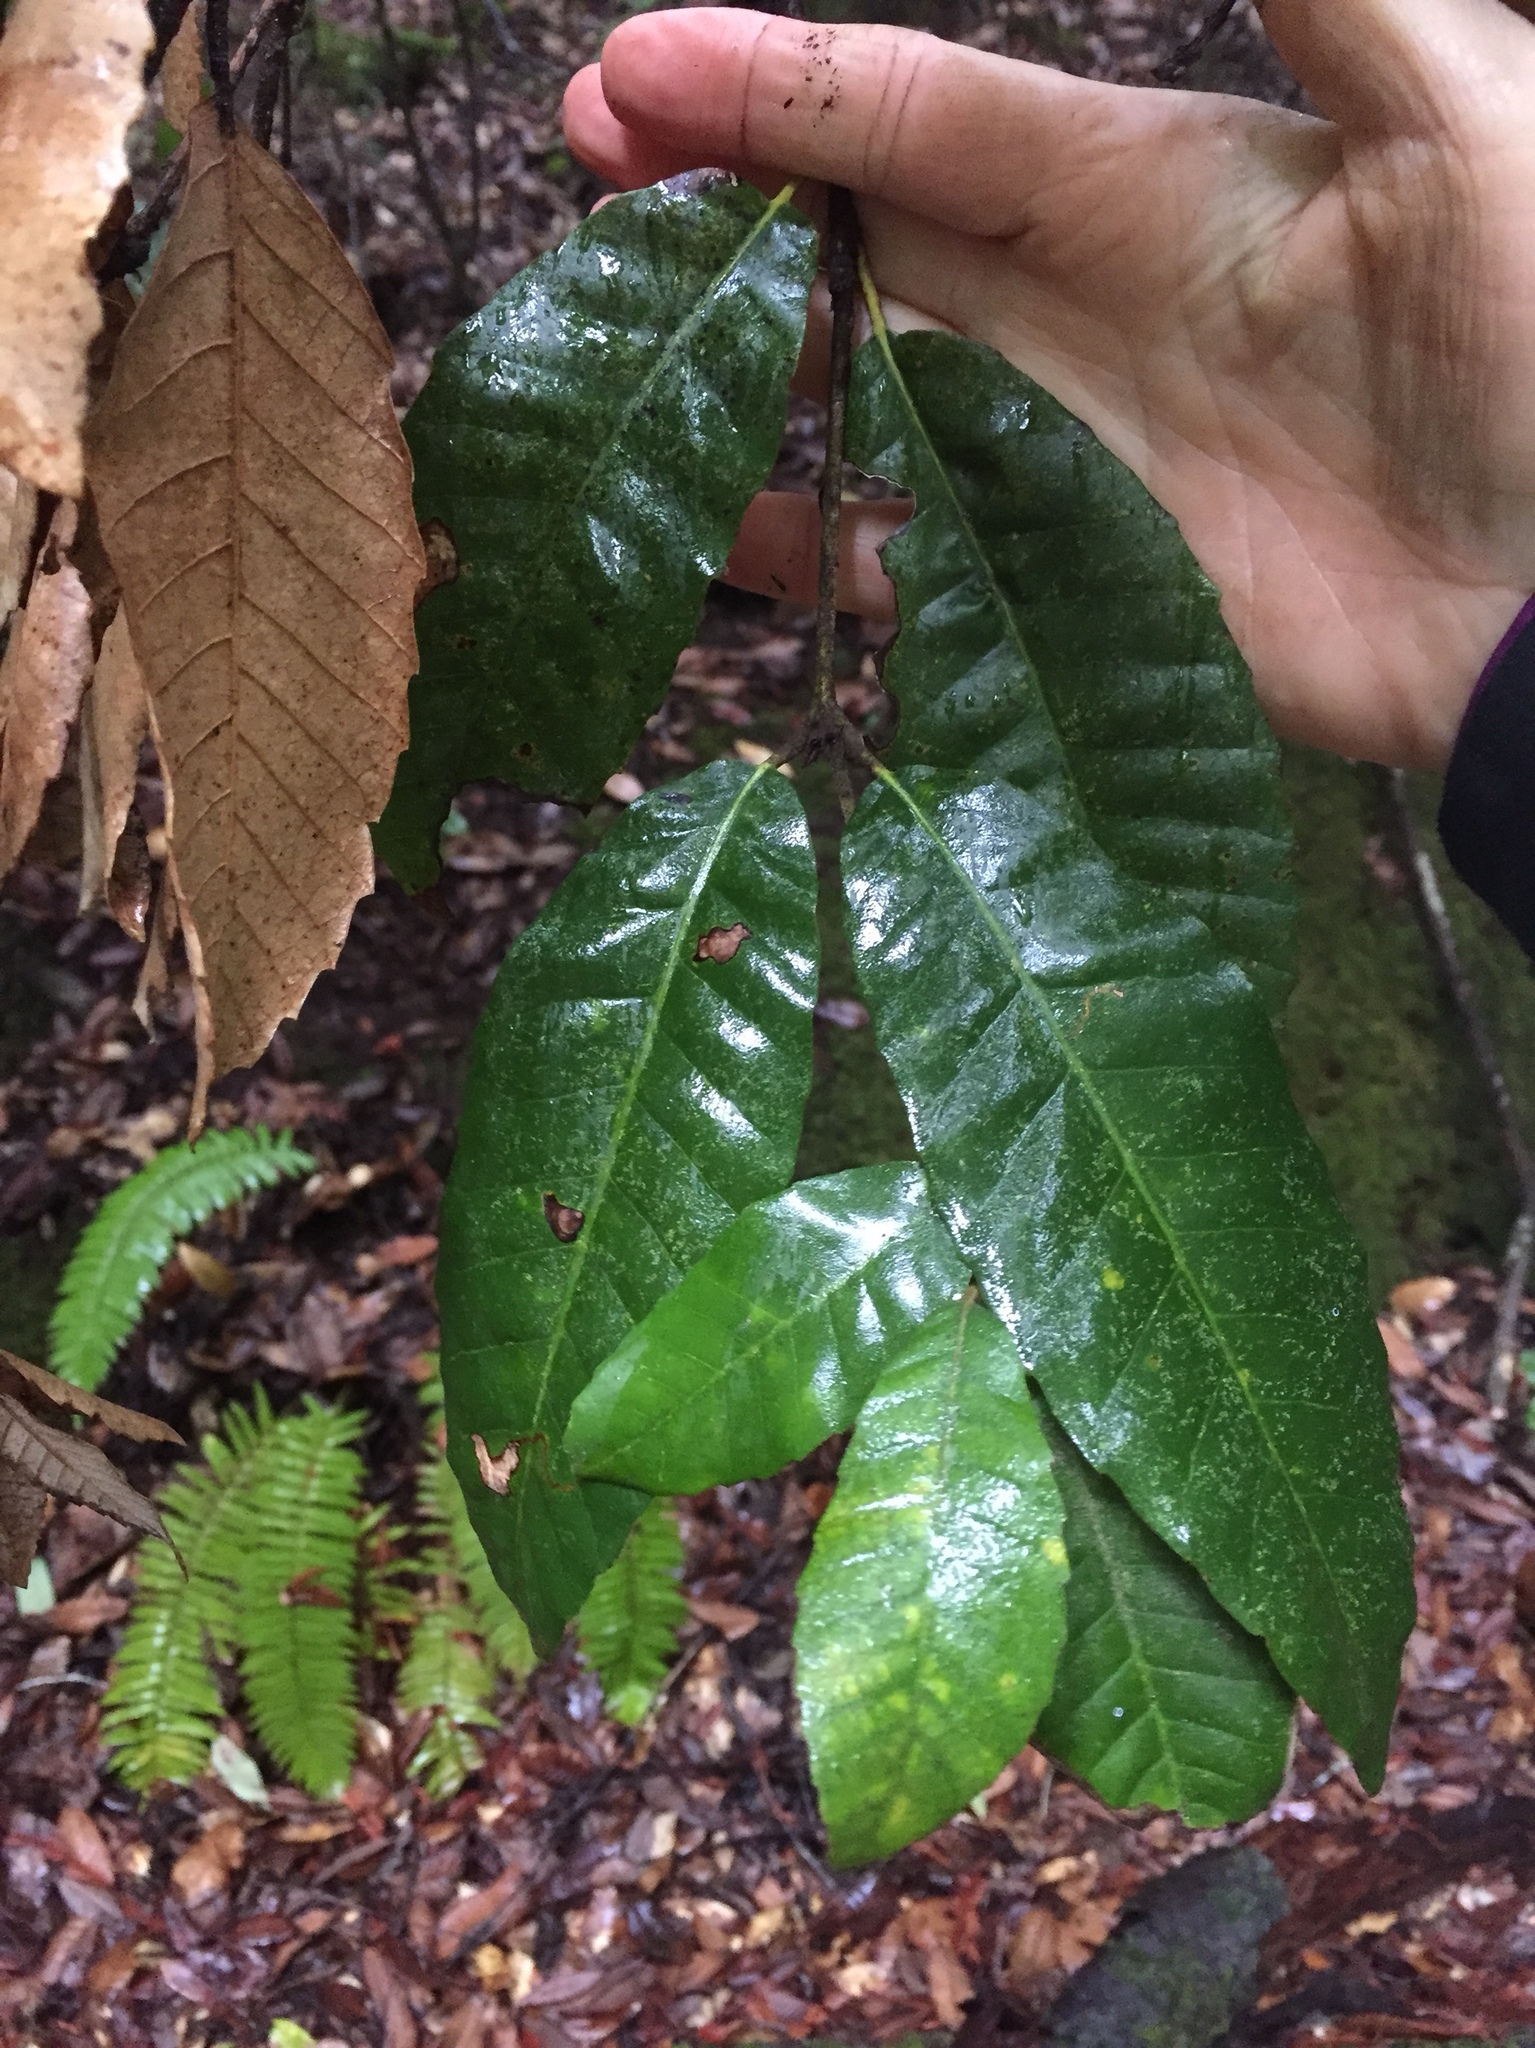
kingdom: Plantae
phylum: Tracheophyta
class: Magnoliopsida
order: Fagales
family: Fagaceae
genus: Notholithocarpus
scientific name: Notholithocarpus densiflorus
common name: Tan bark oak
